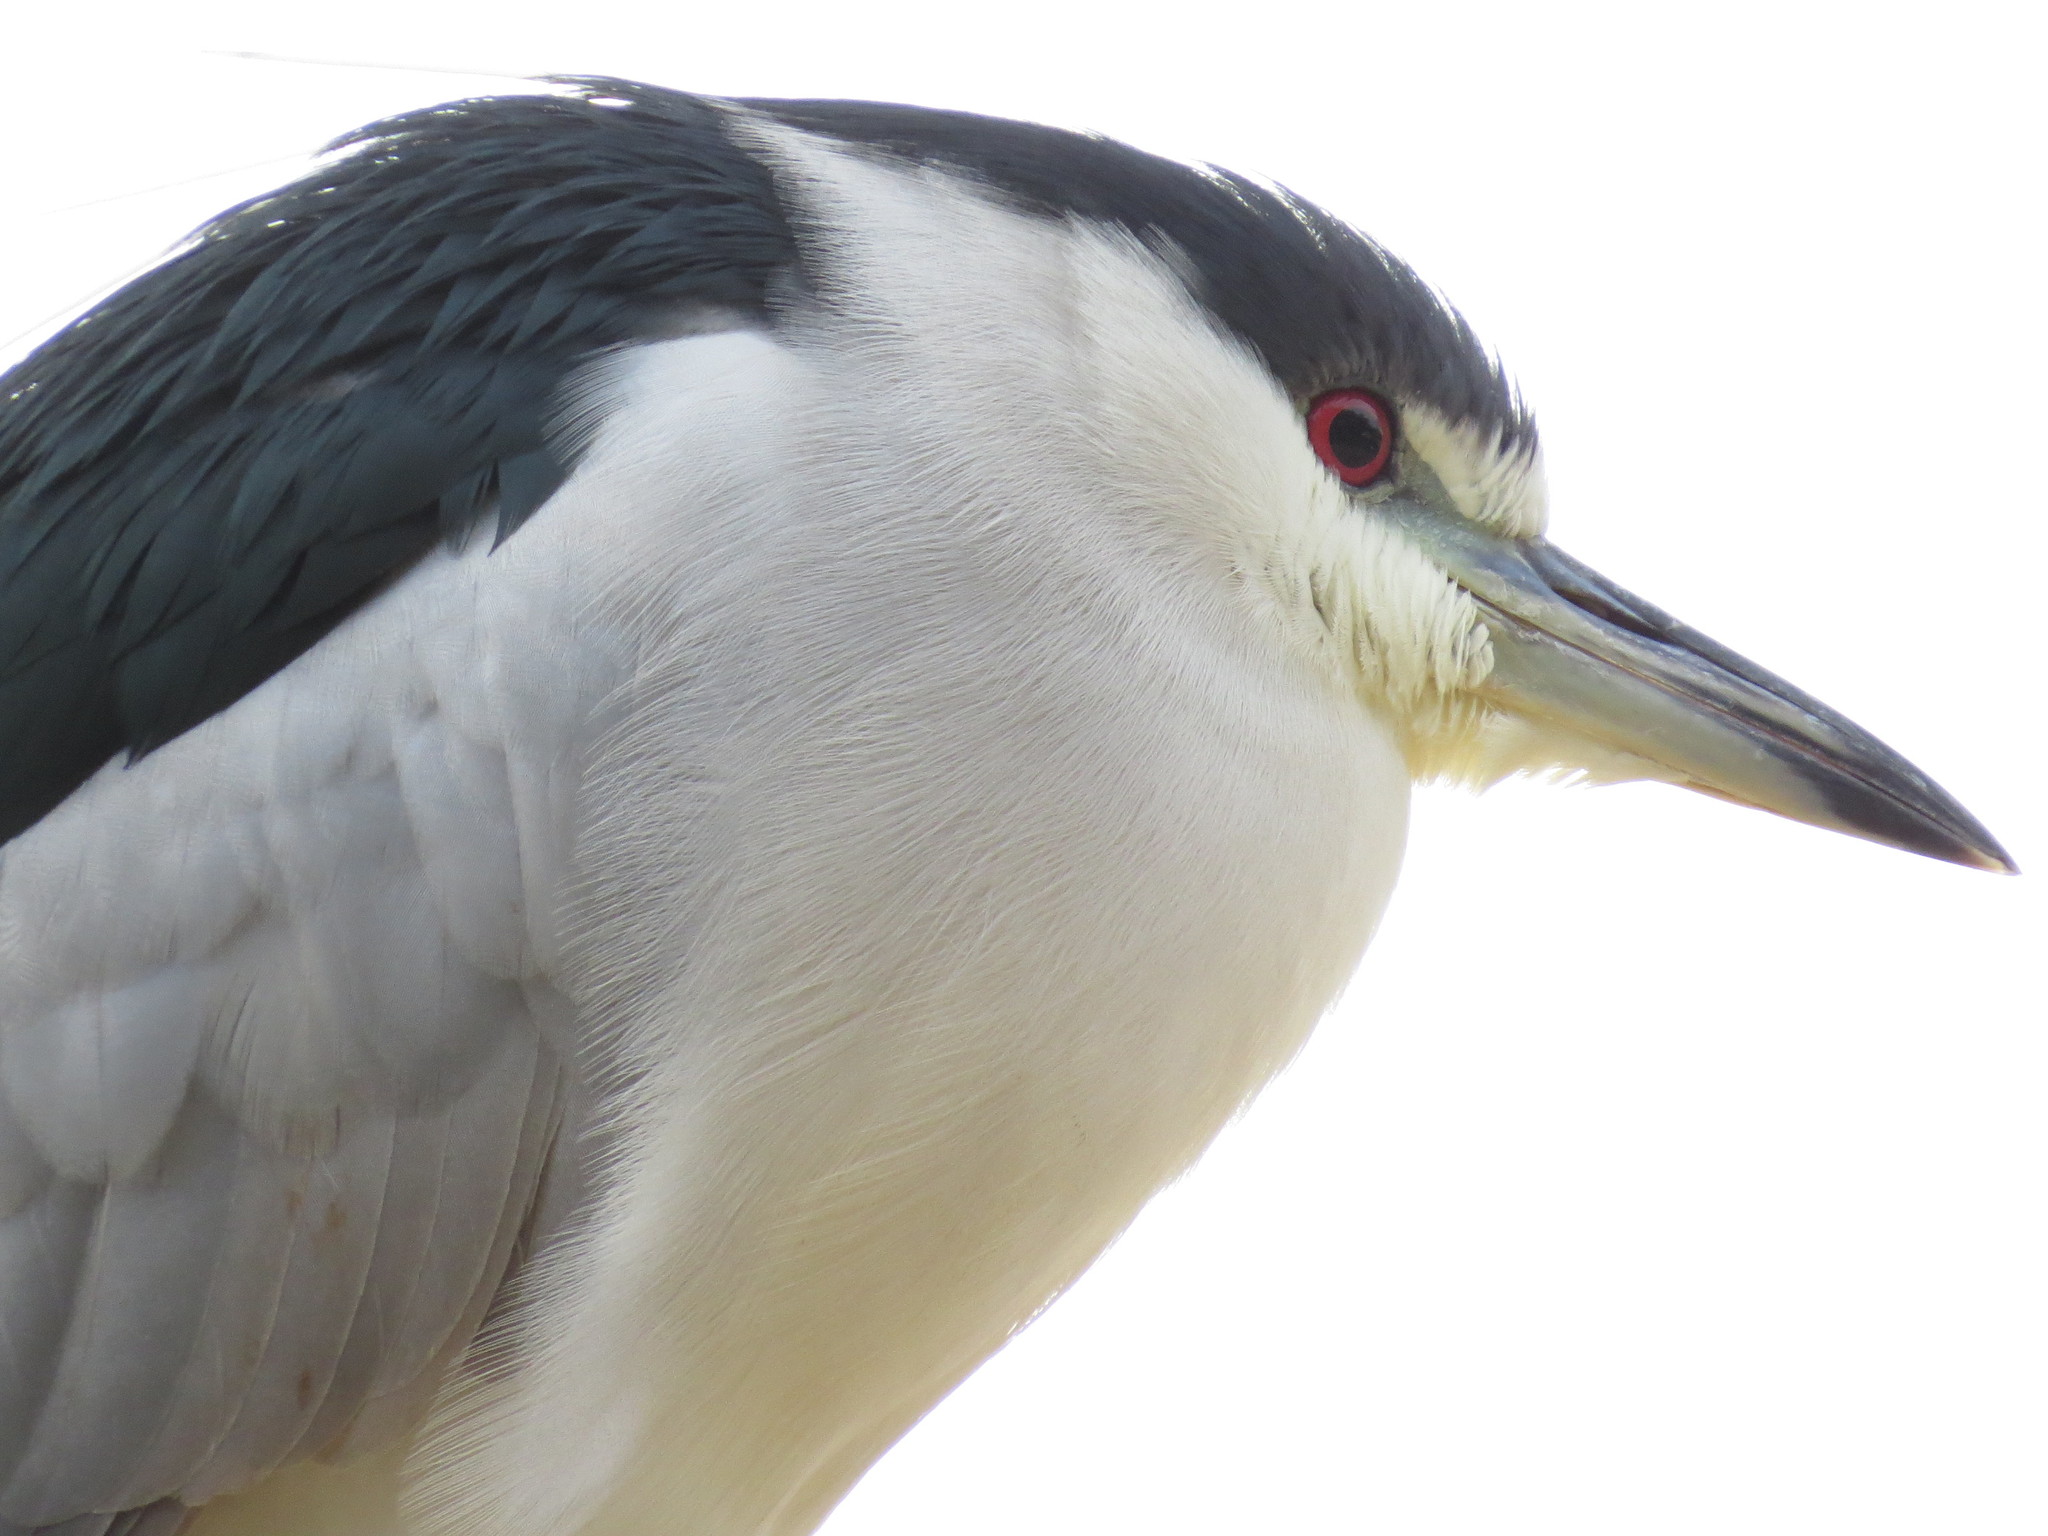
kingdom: Animalia
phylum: Chordata
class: Aves
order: Pelecaniformes
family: Ardeidae
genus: Nycticorax
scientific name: Nycticorax nycticorax
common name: Black-crowned night heron
